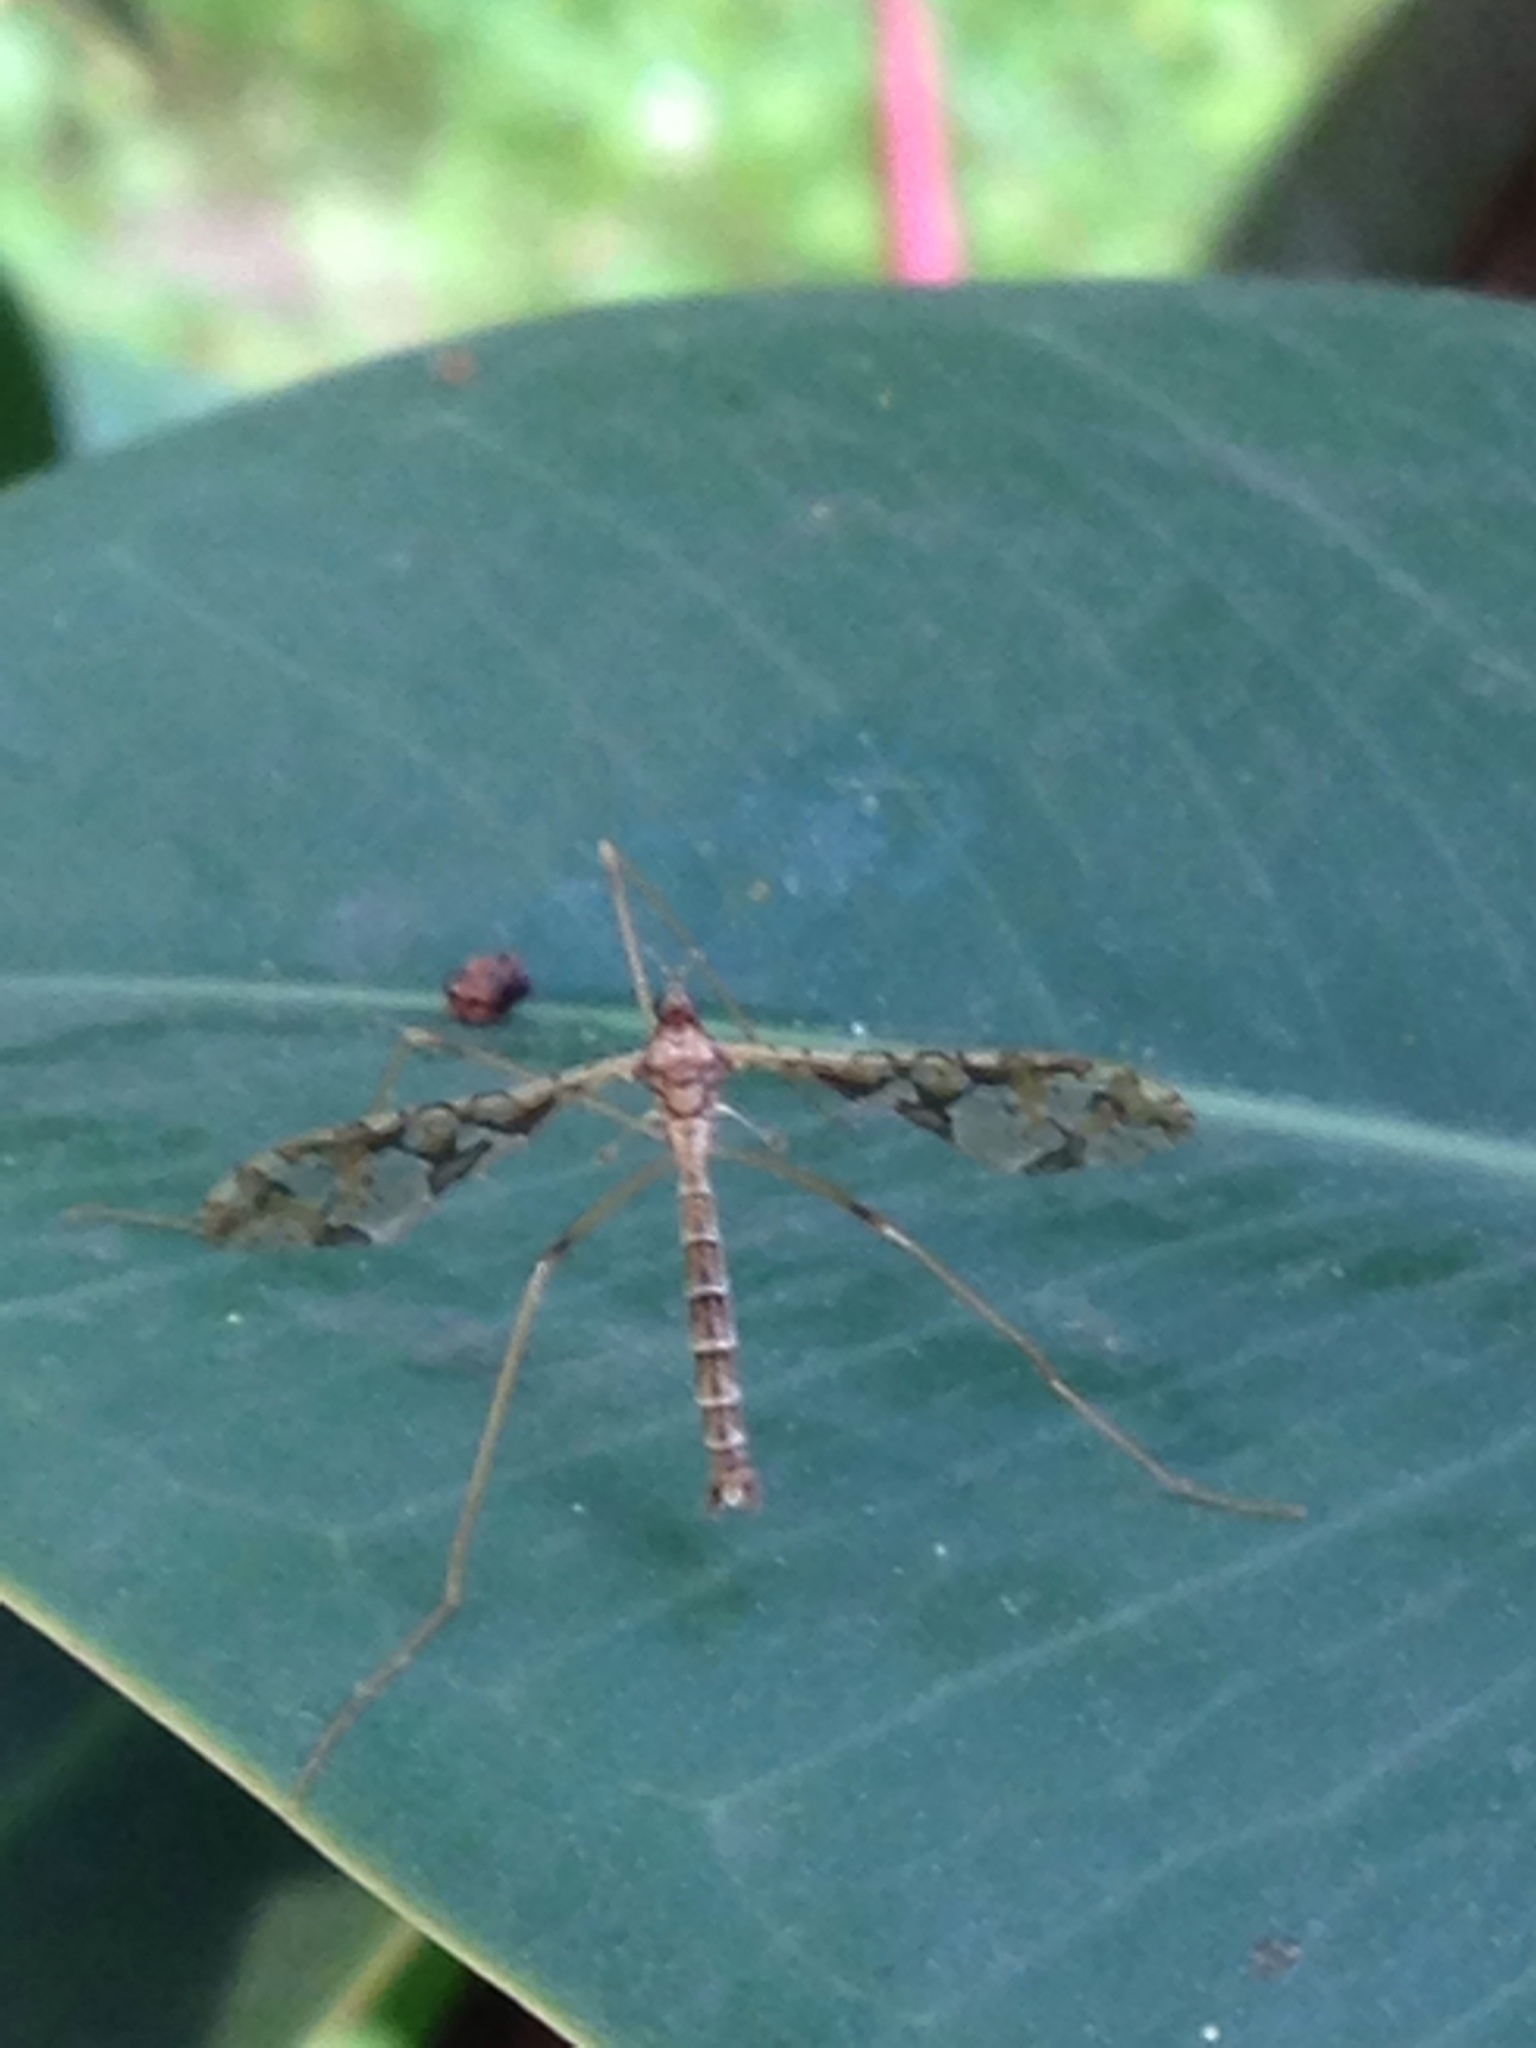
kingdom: Animalia
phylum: Arthropoda
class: Insecta
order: Diptera
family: Limoniidae
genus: Epiphragma
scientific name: Epiphragma solatrix
